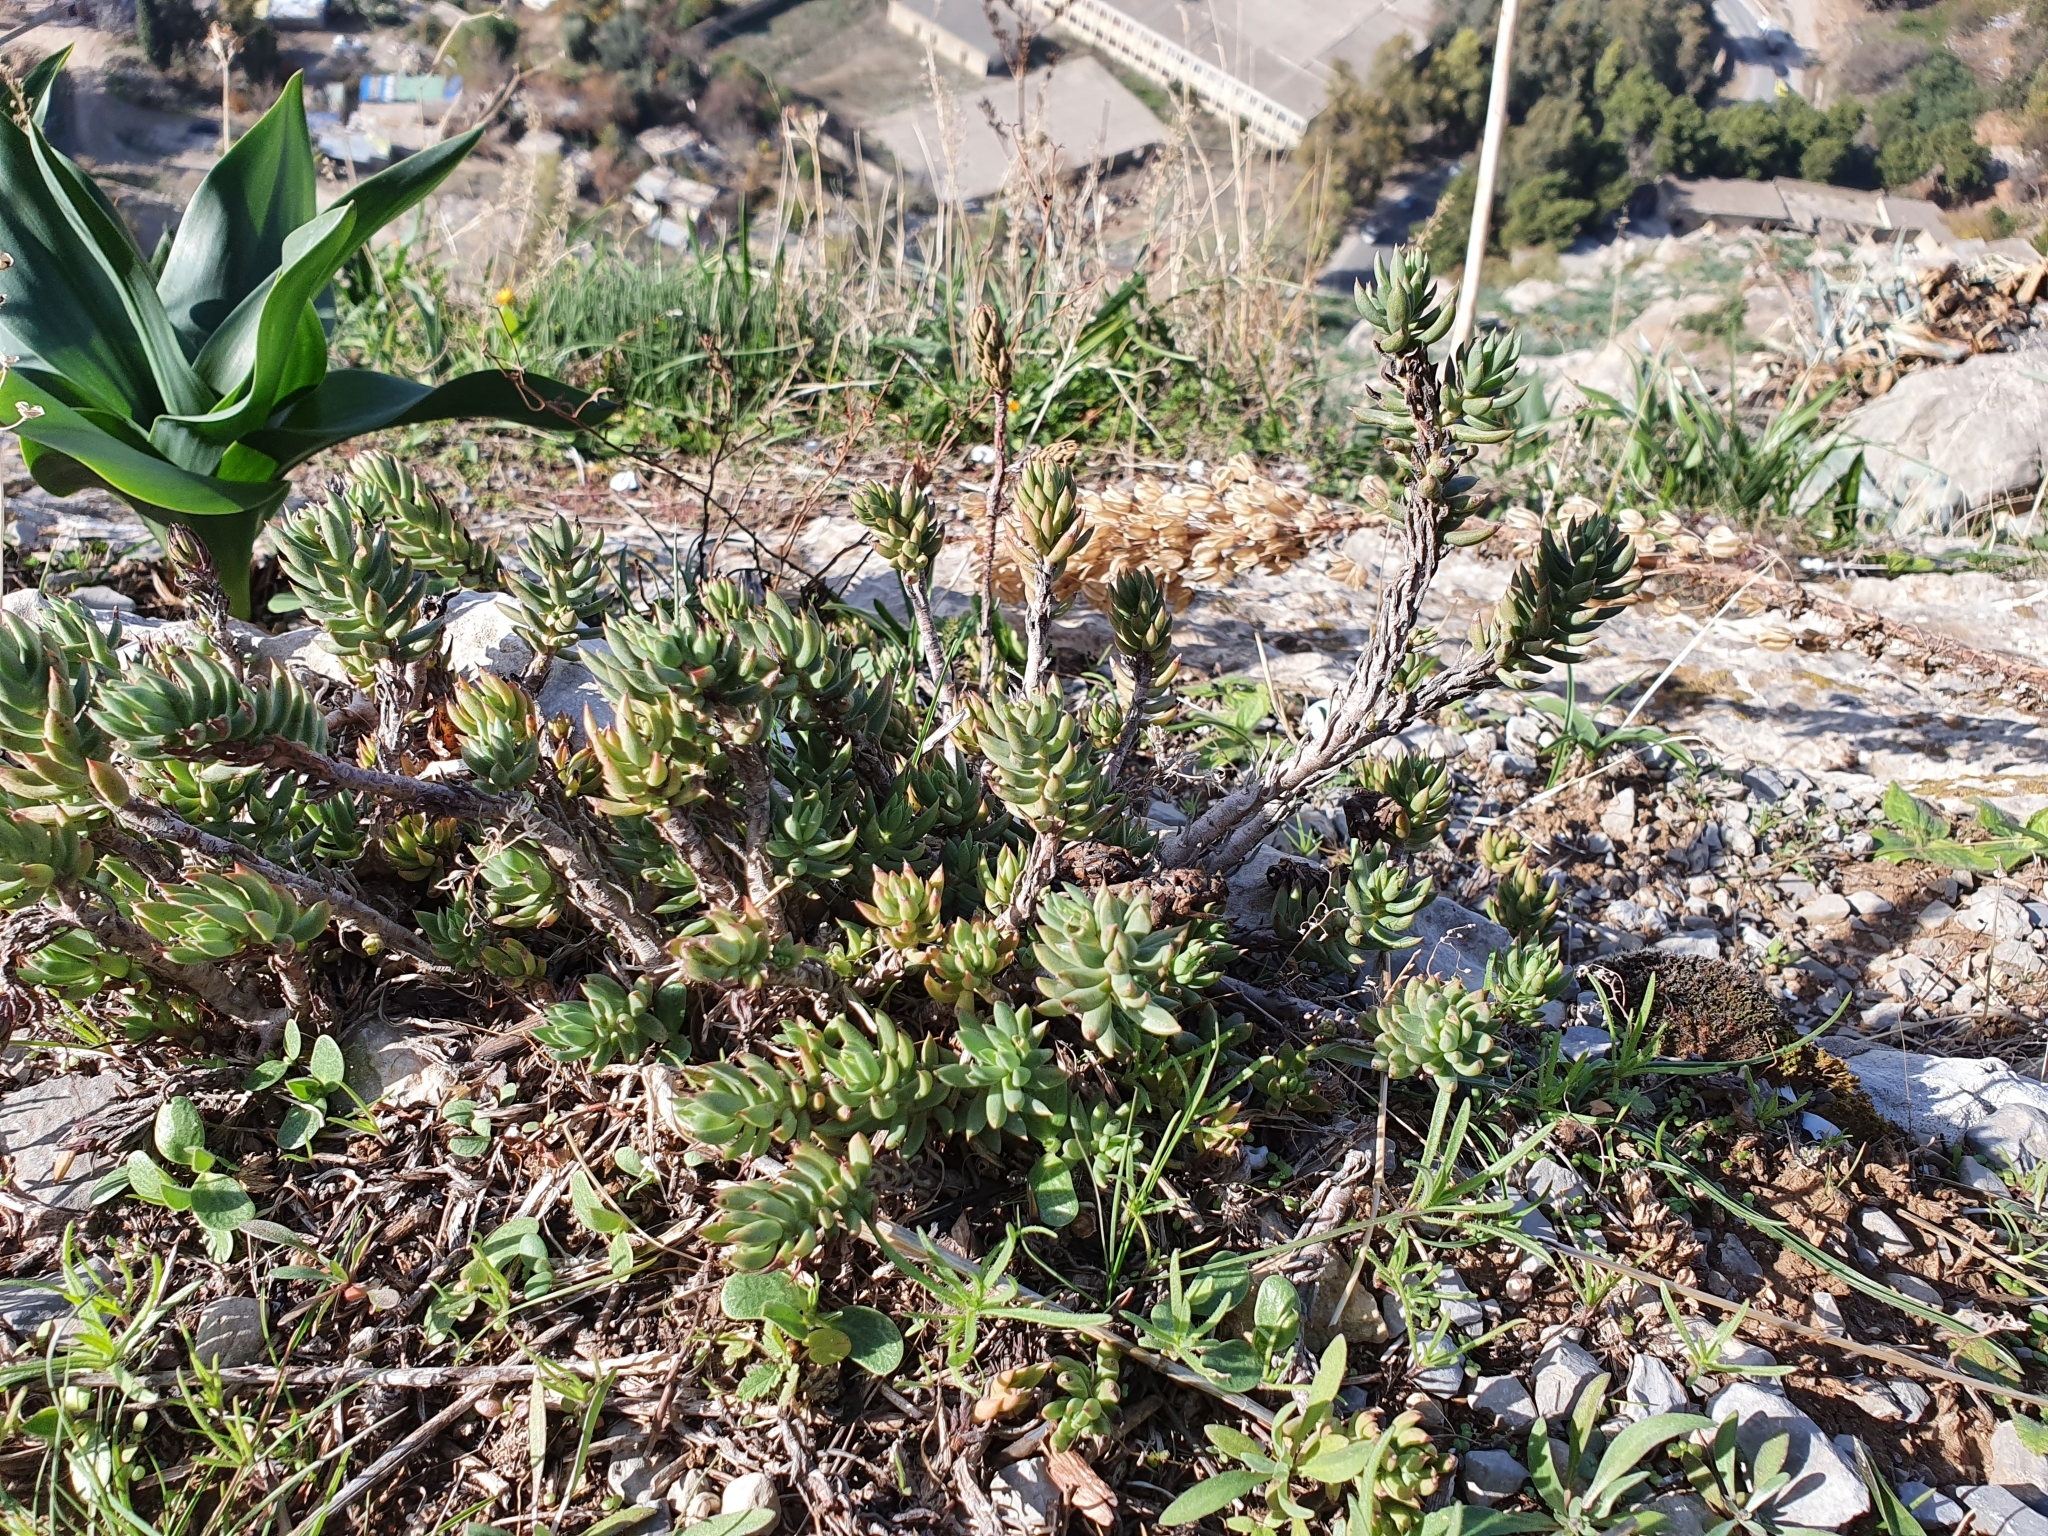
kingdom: Plantae
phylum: Tracheophyta
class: Magnoliopsida
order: Saxifragales
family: Crassulaceae
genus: Petrosedum
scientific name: Petrosedum sediforme
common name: Pale stonecrop
